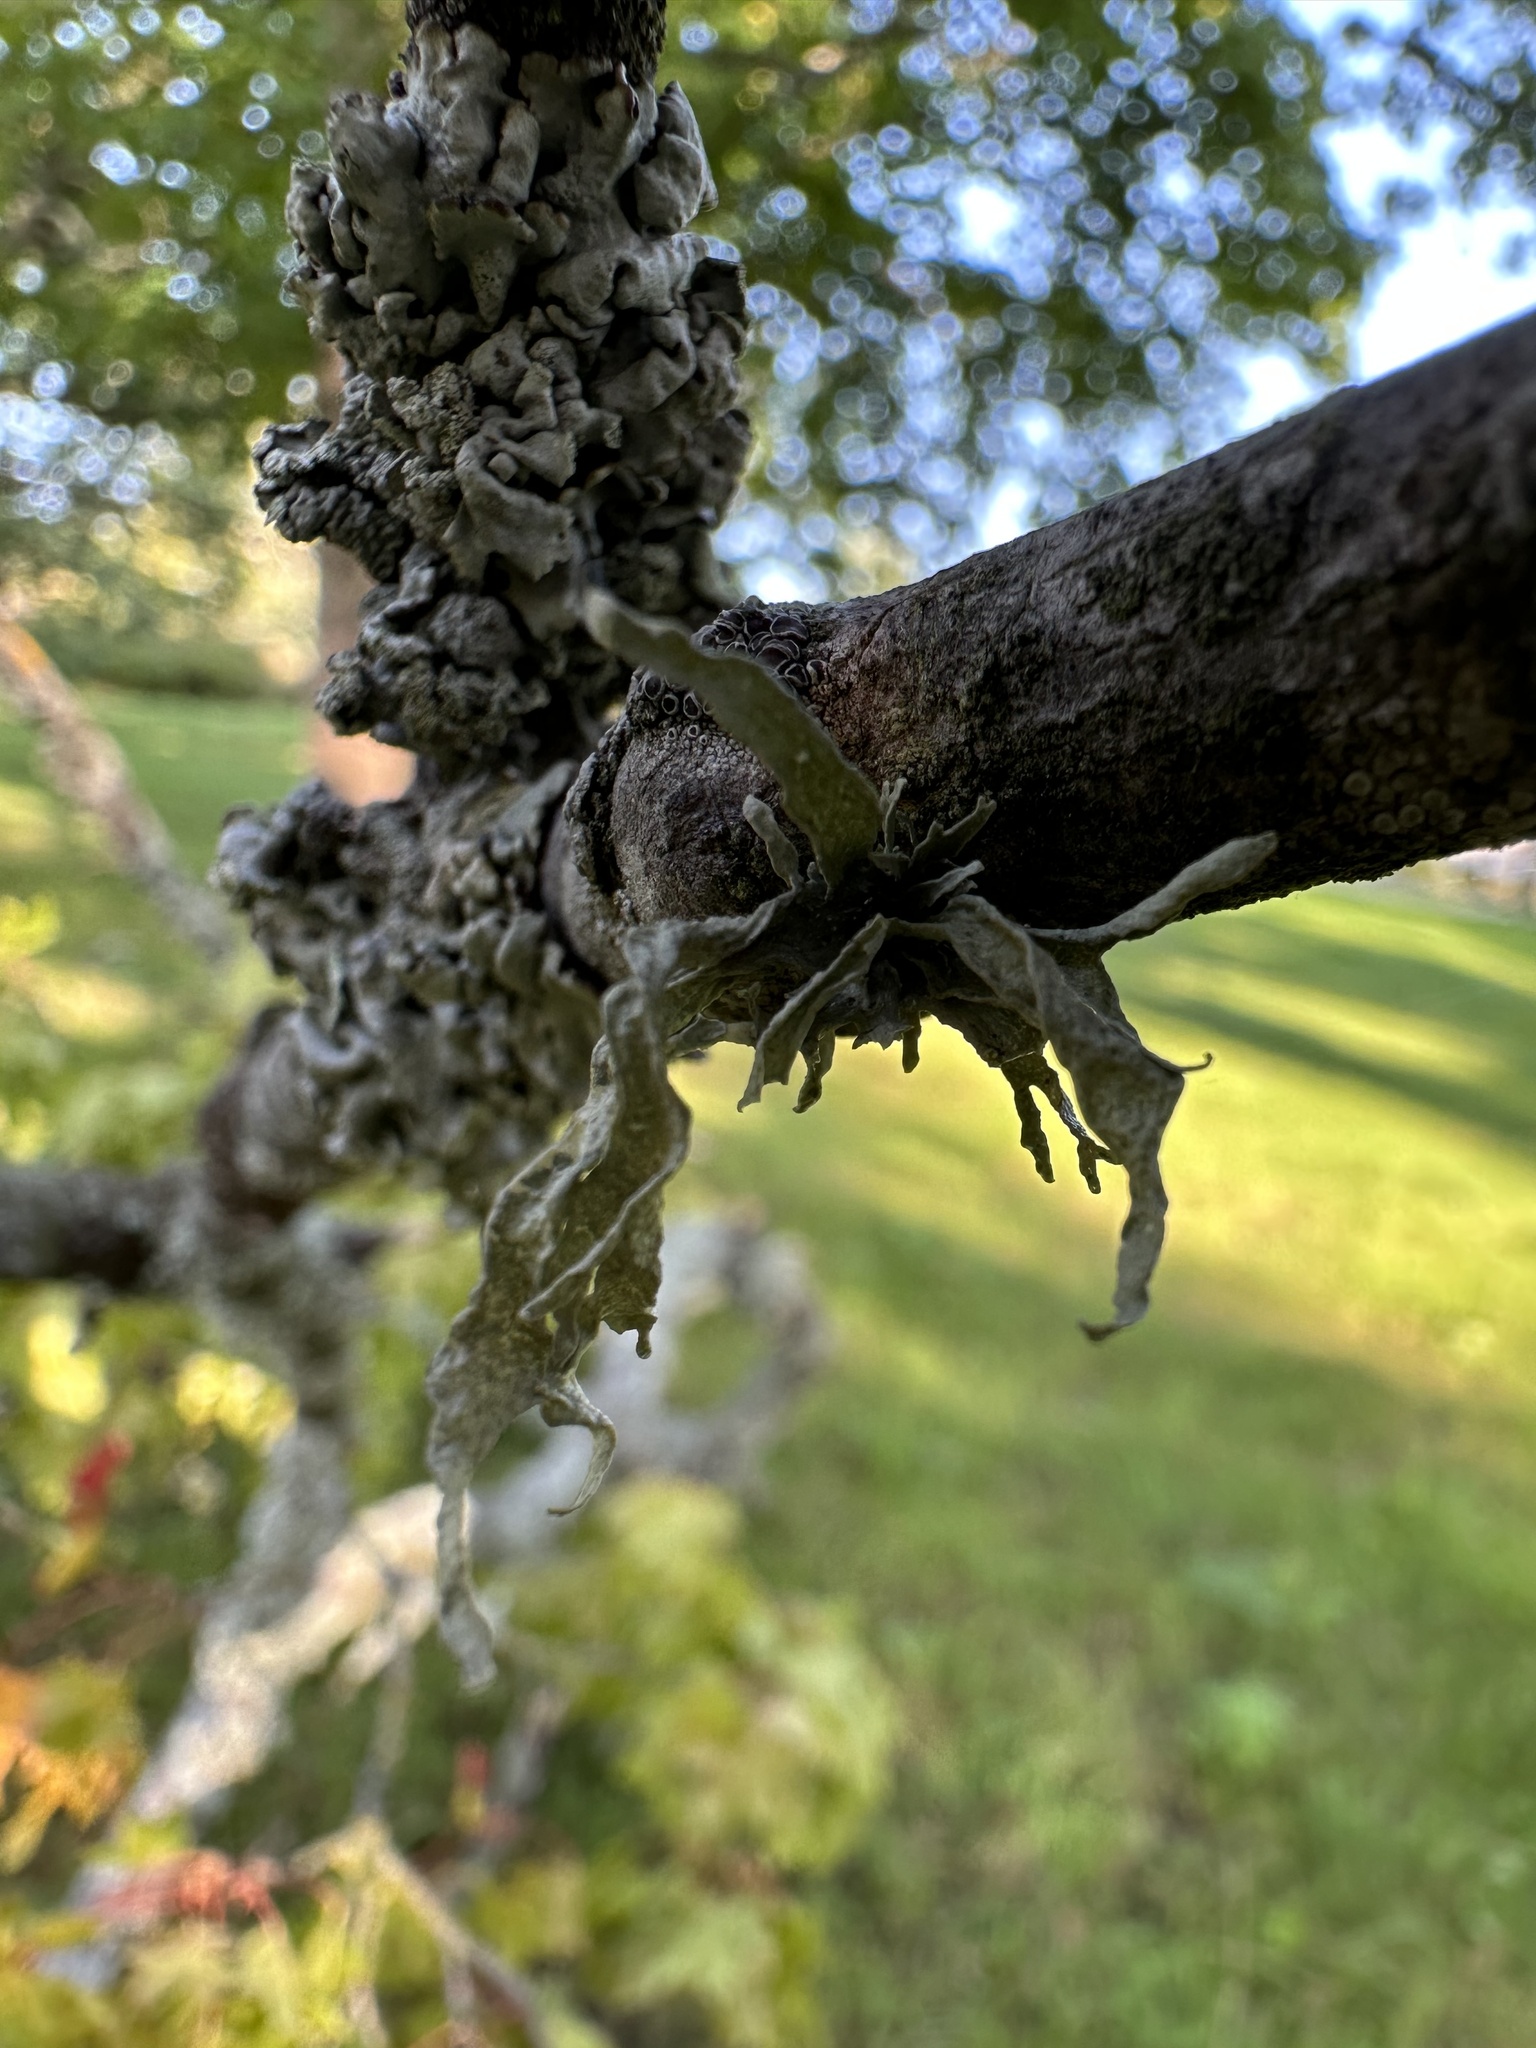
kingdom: Fungi
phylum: Ascomycota
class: Lecanoromycetes
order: Lecanorales
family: Ramalinaceae
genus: Ramalina
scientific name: Ramalina fraxinea
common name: Cartilage lichen
